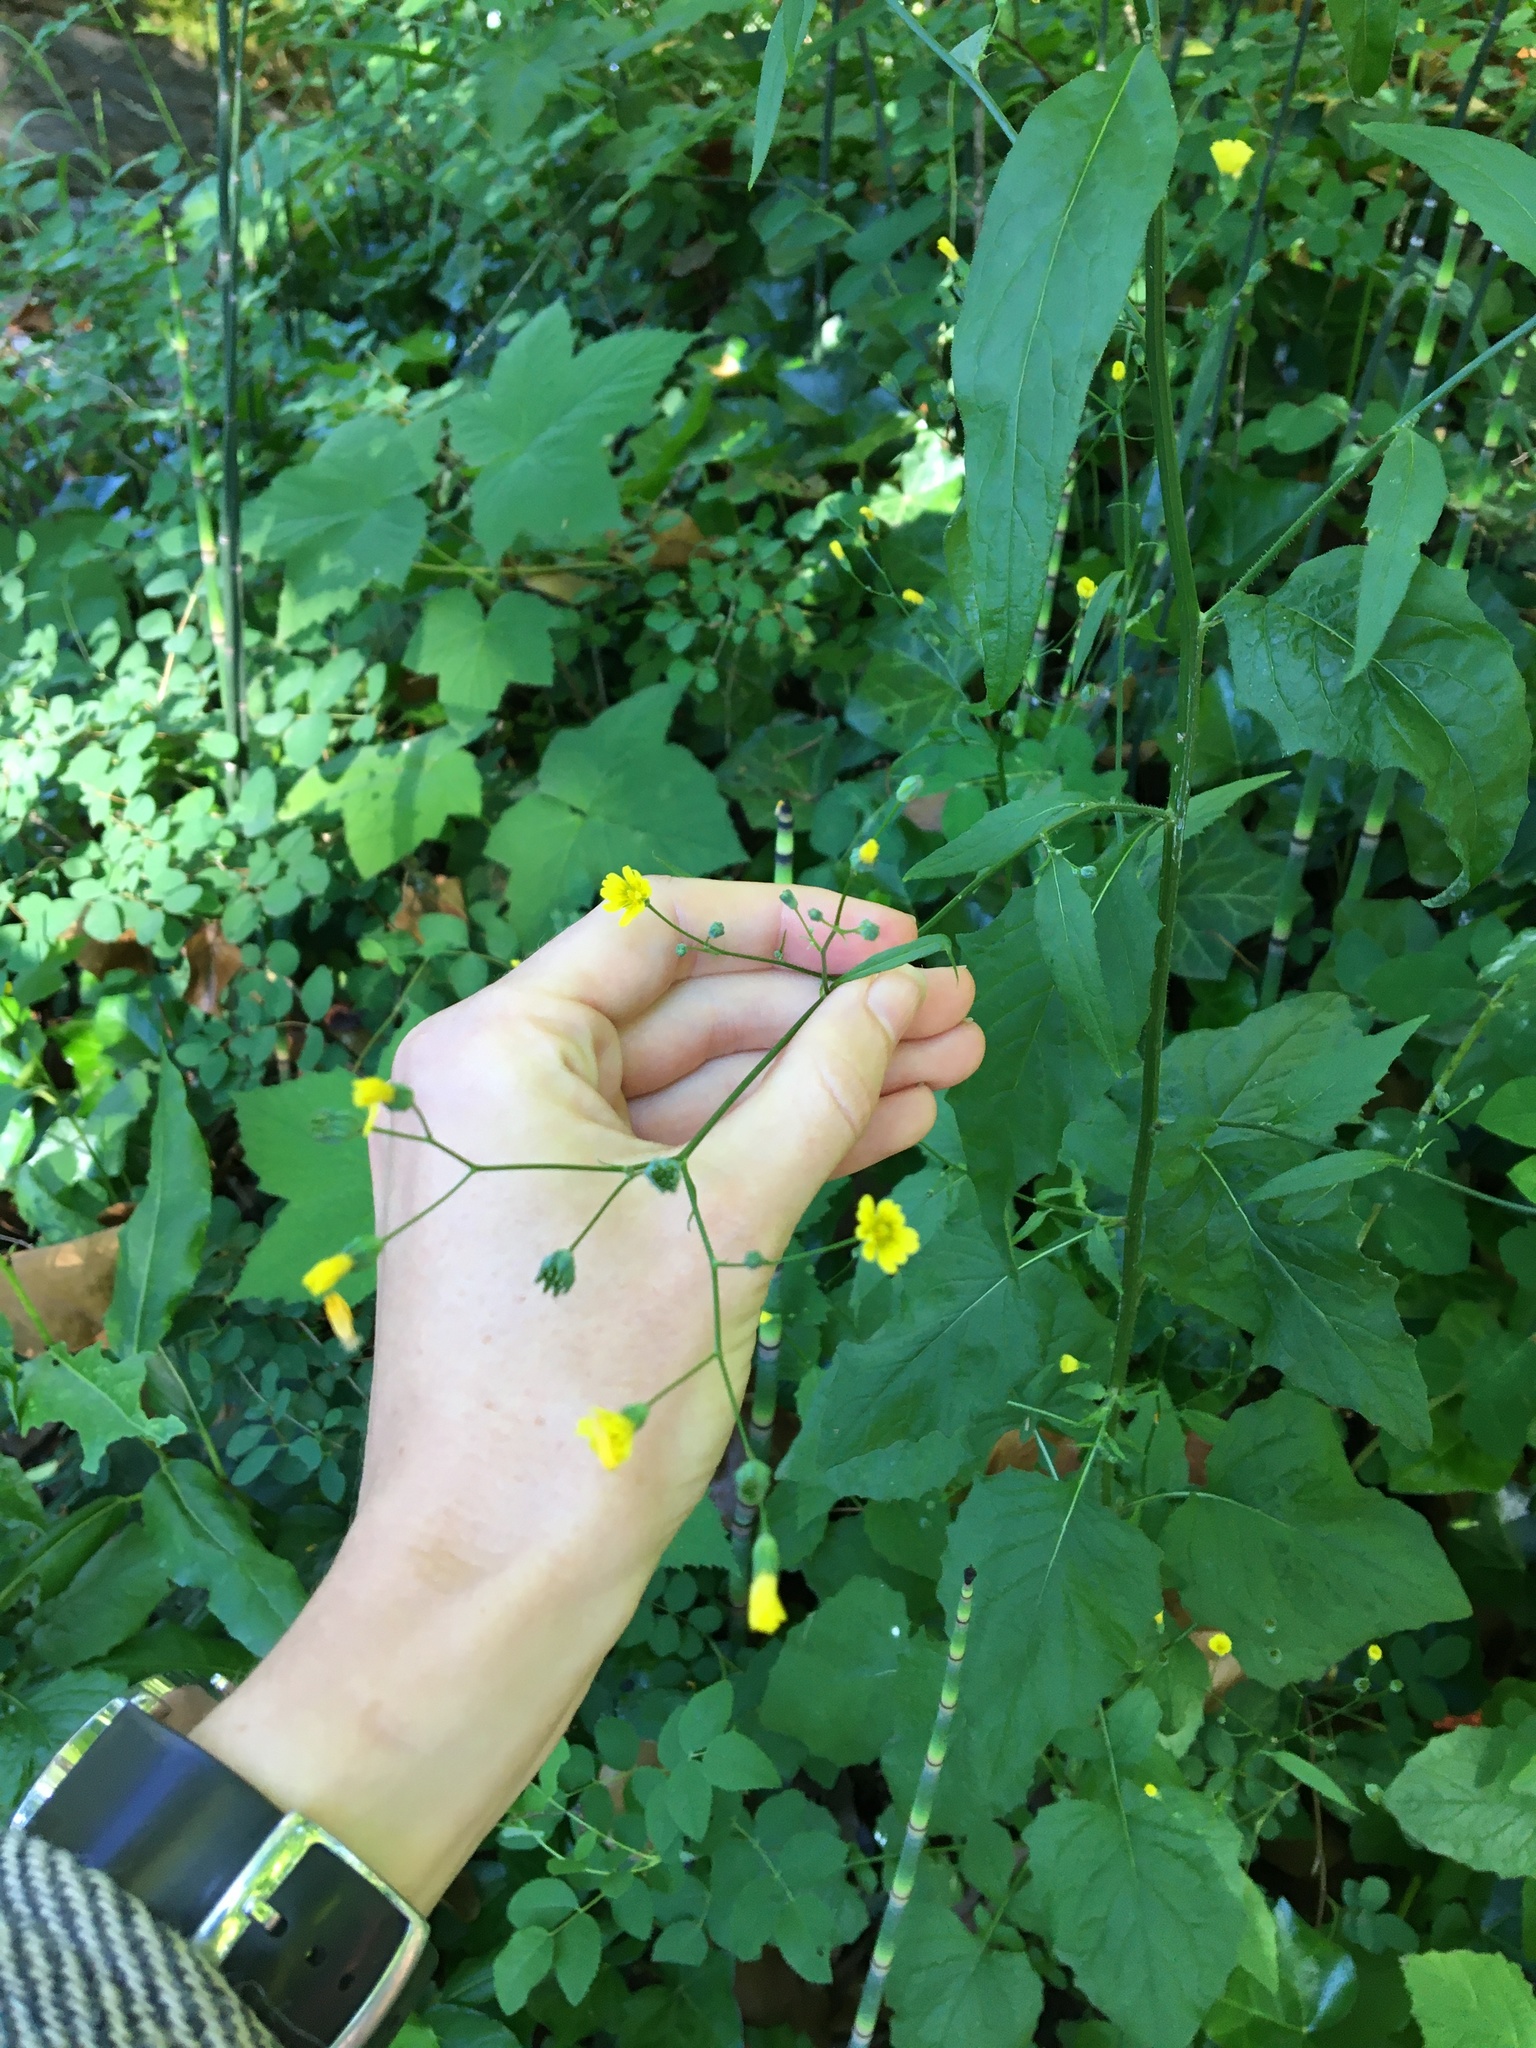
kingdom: Plantae
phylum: Tracheophyta
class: Magnoliopsida
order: Asterales
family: Asteraceae
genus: Lapsana
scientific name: Lapsana communis
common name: Nipplewort
